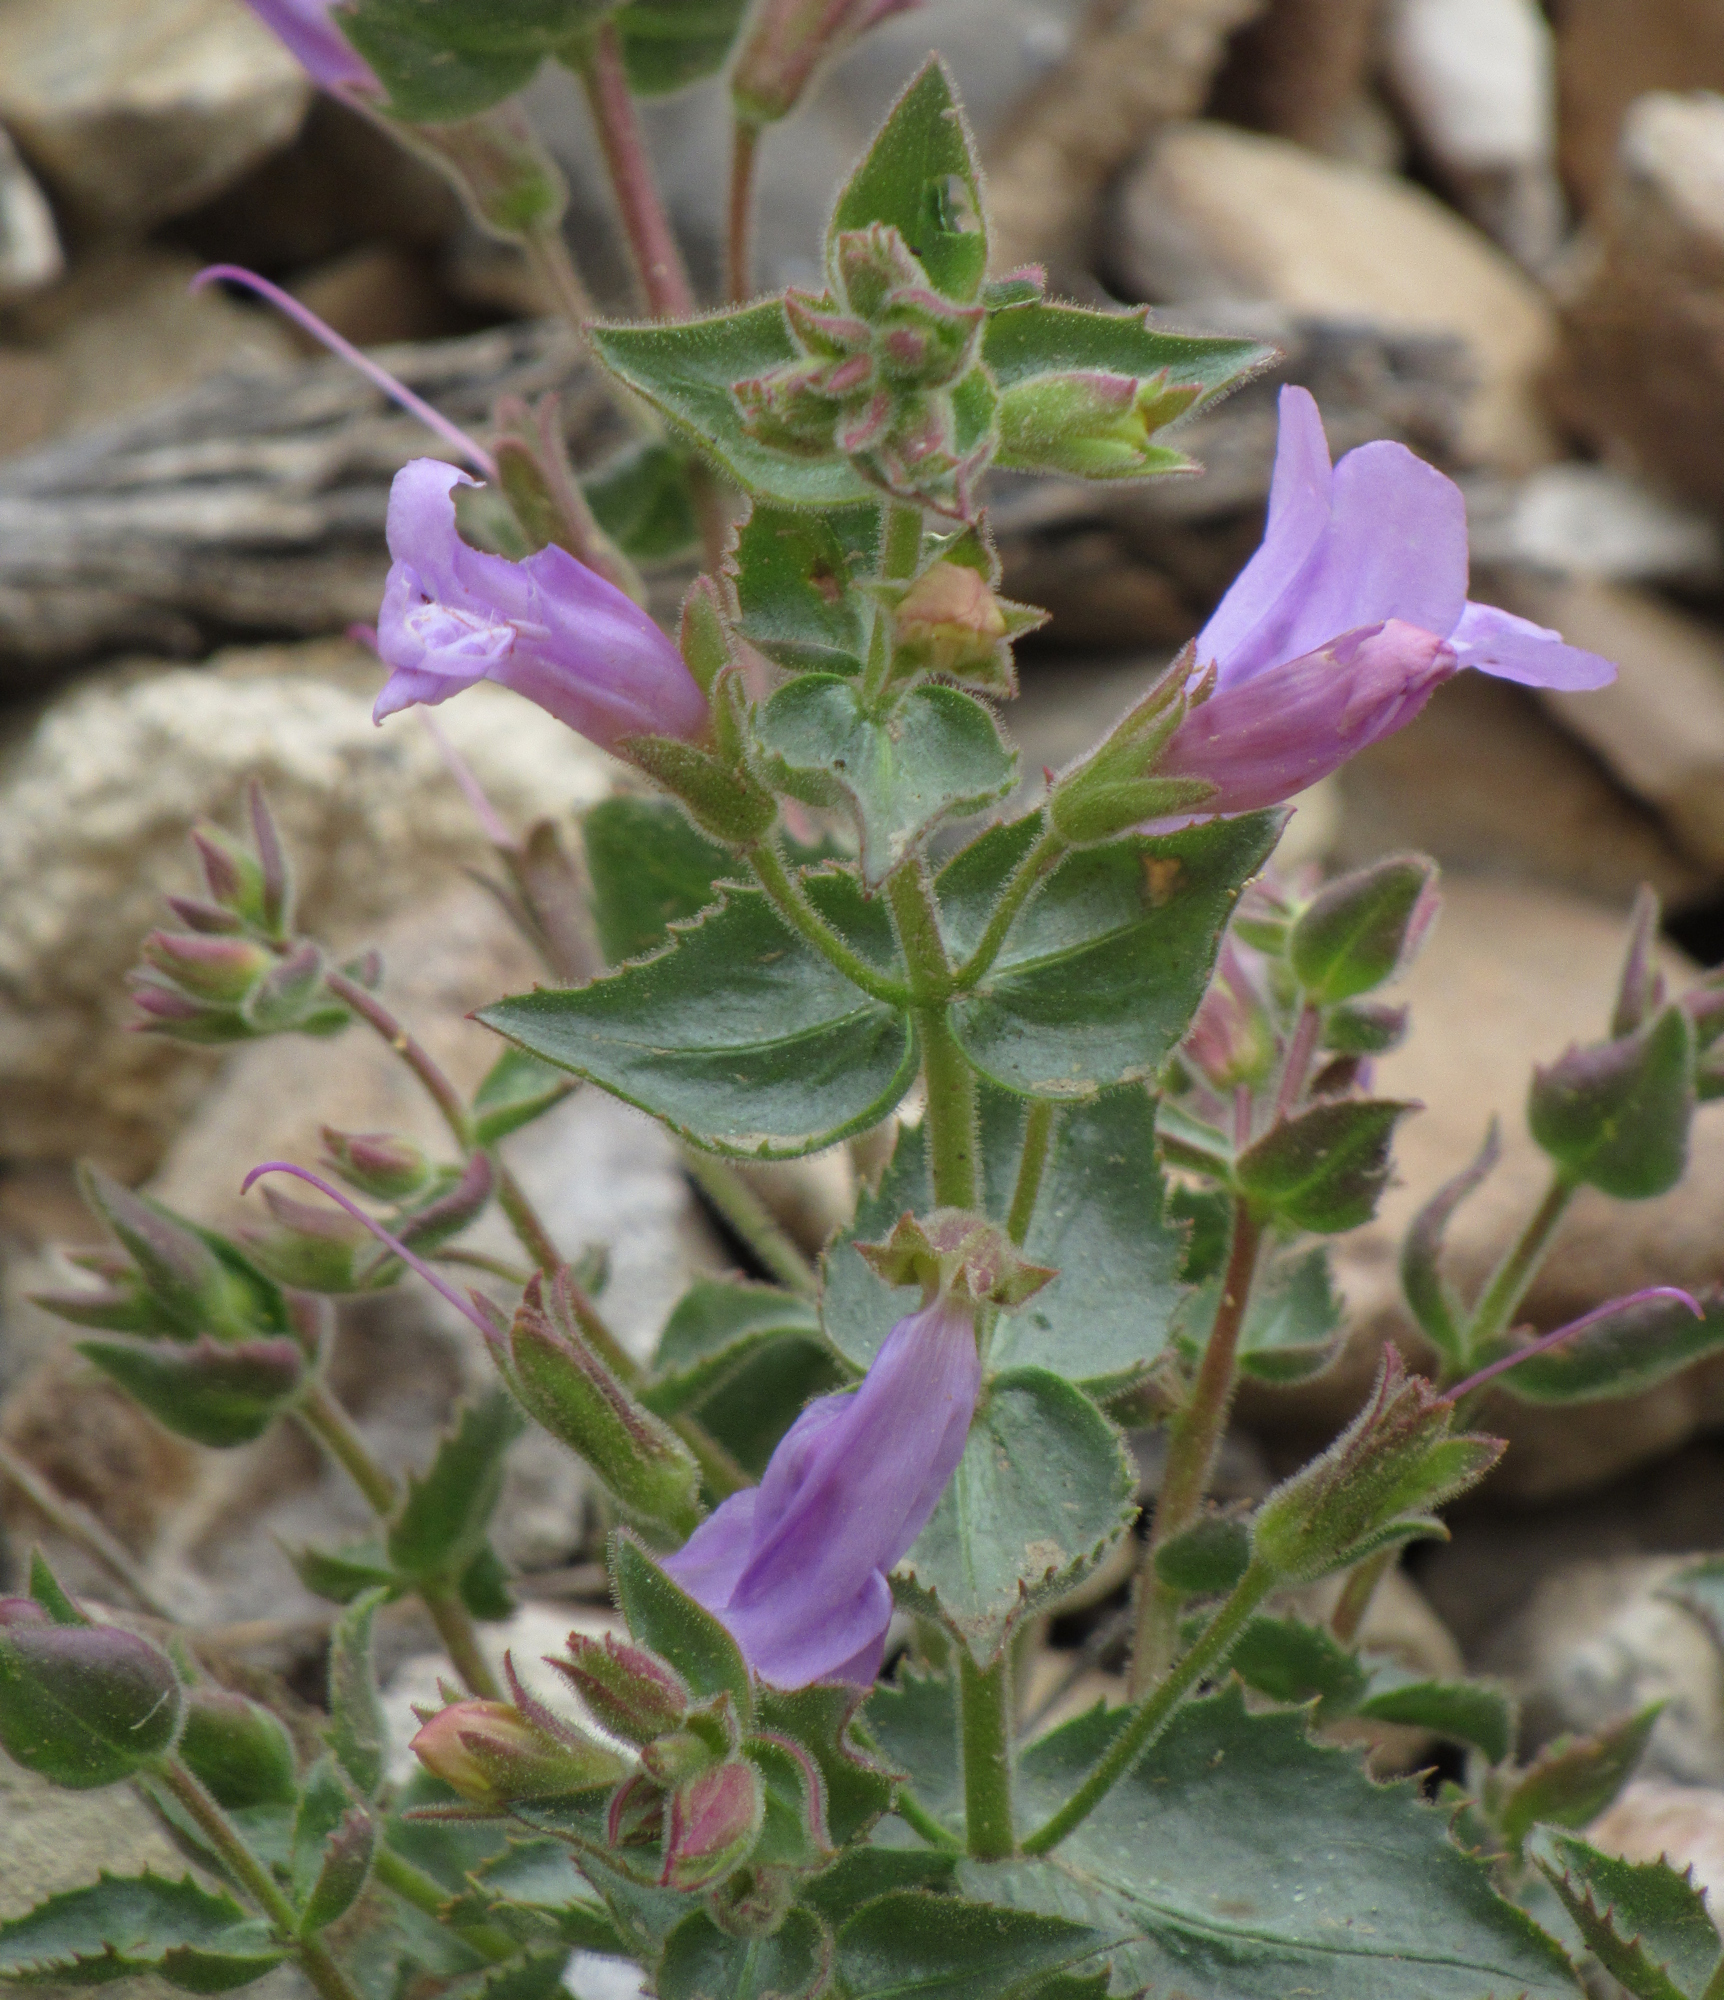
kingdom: Plantae
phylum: Tracheophyta
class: Magnoliopsida
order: Lamiales
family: Plantaginaceae
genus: Penstemon
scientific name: Penstemon montanus
